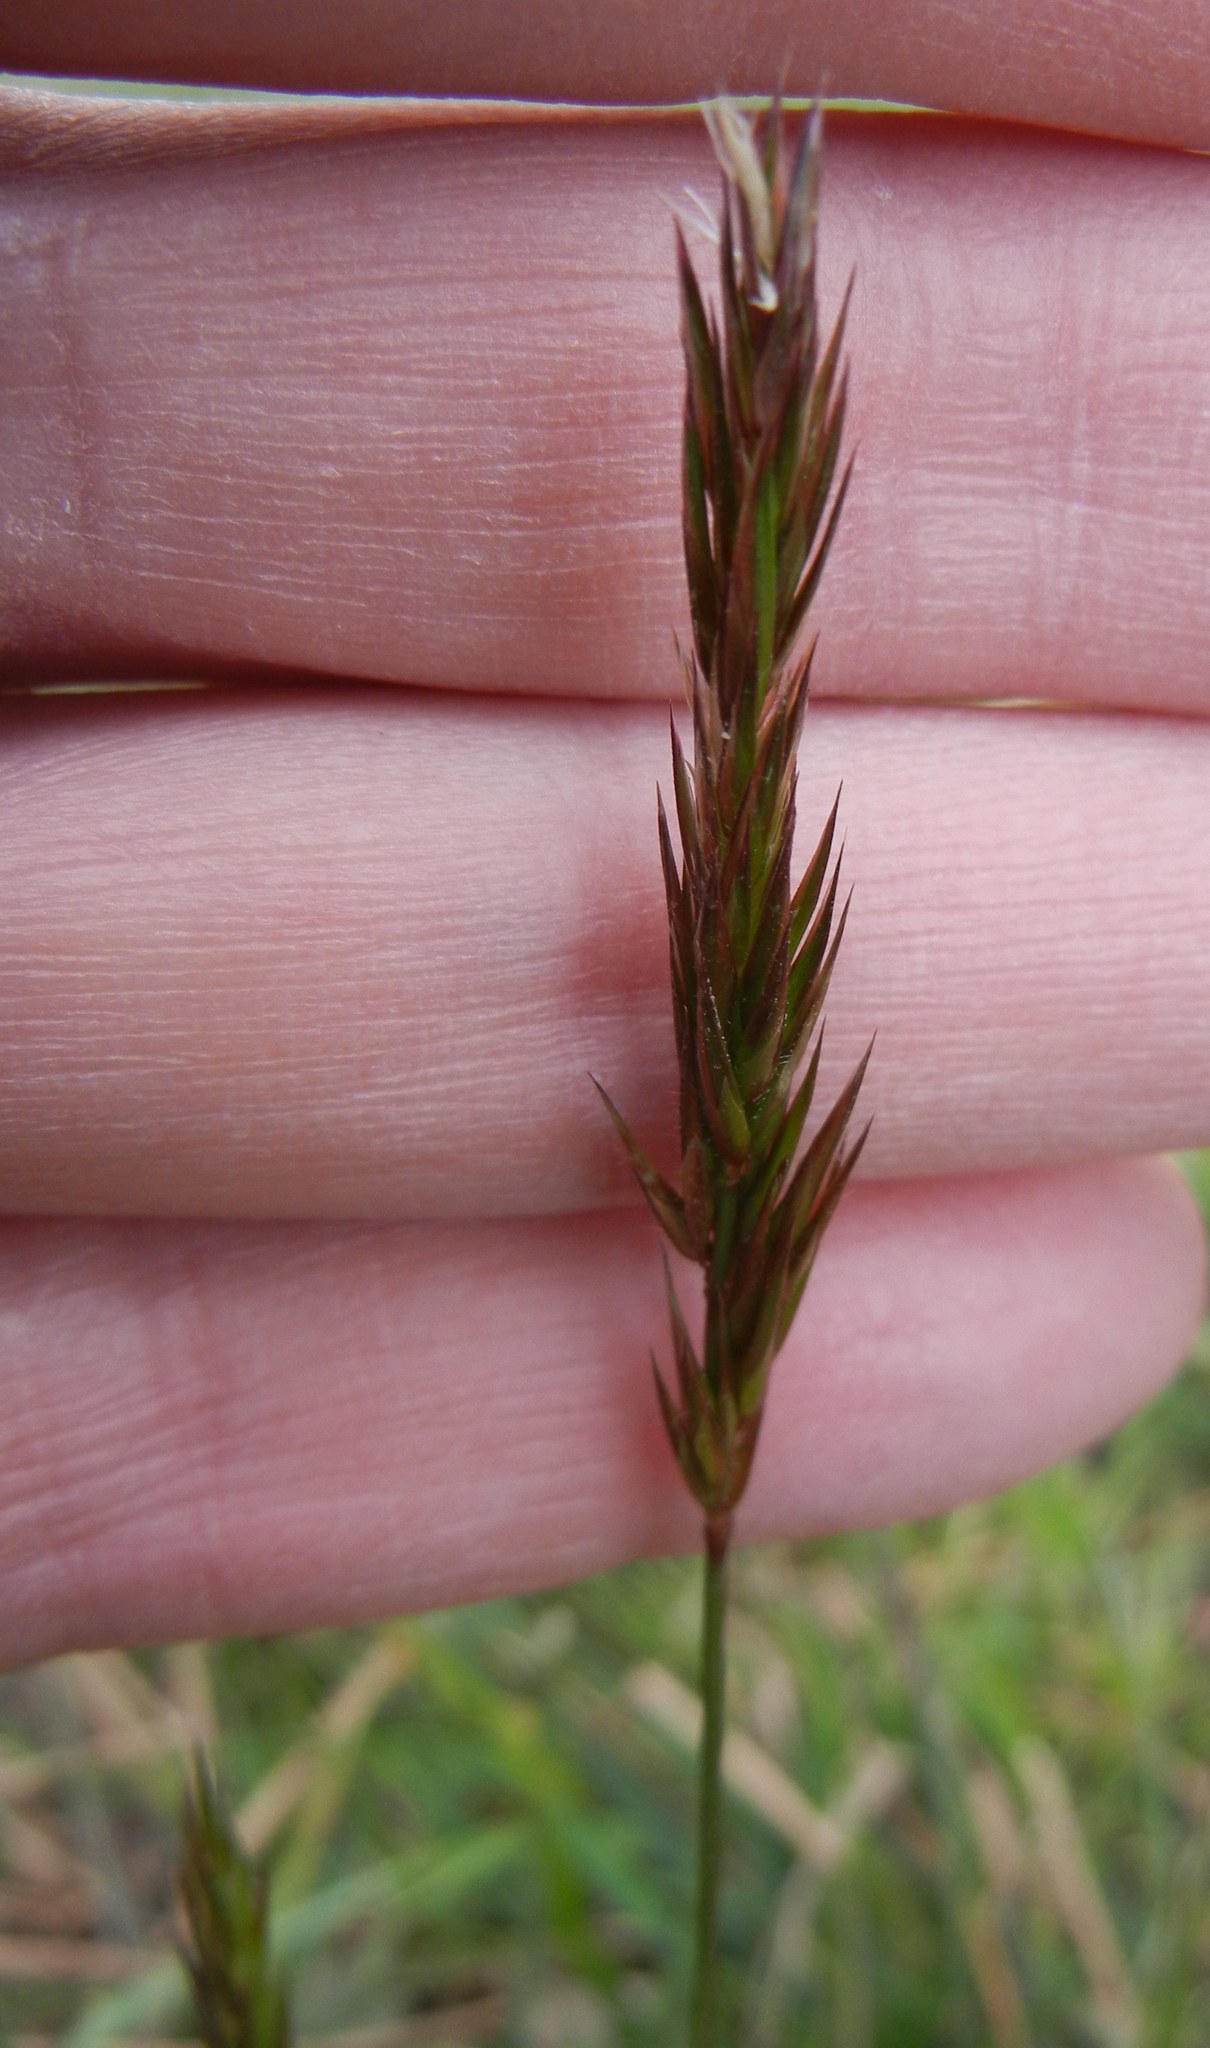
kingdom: Plantae
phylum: Tracheophyta
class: Liliopsida
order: Poales
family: Poaceae
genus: Anthoxanthum
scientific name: Anthoxanthum odoratum
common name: Sweet vernalgrass
